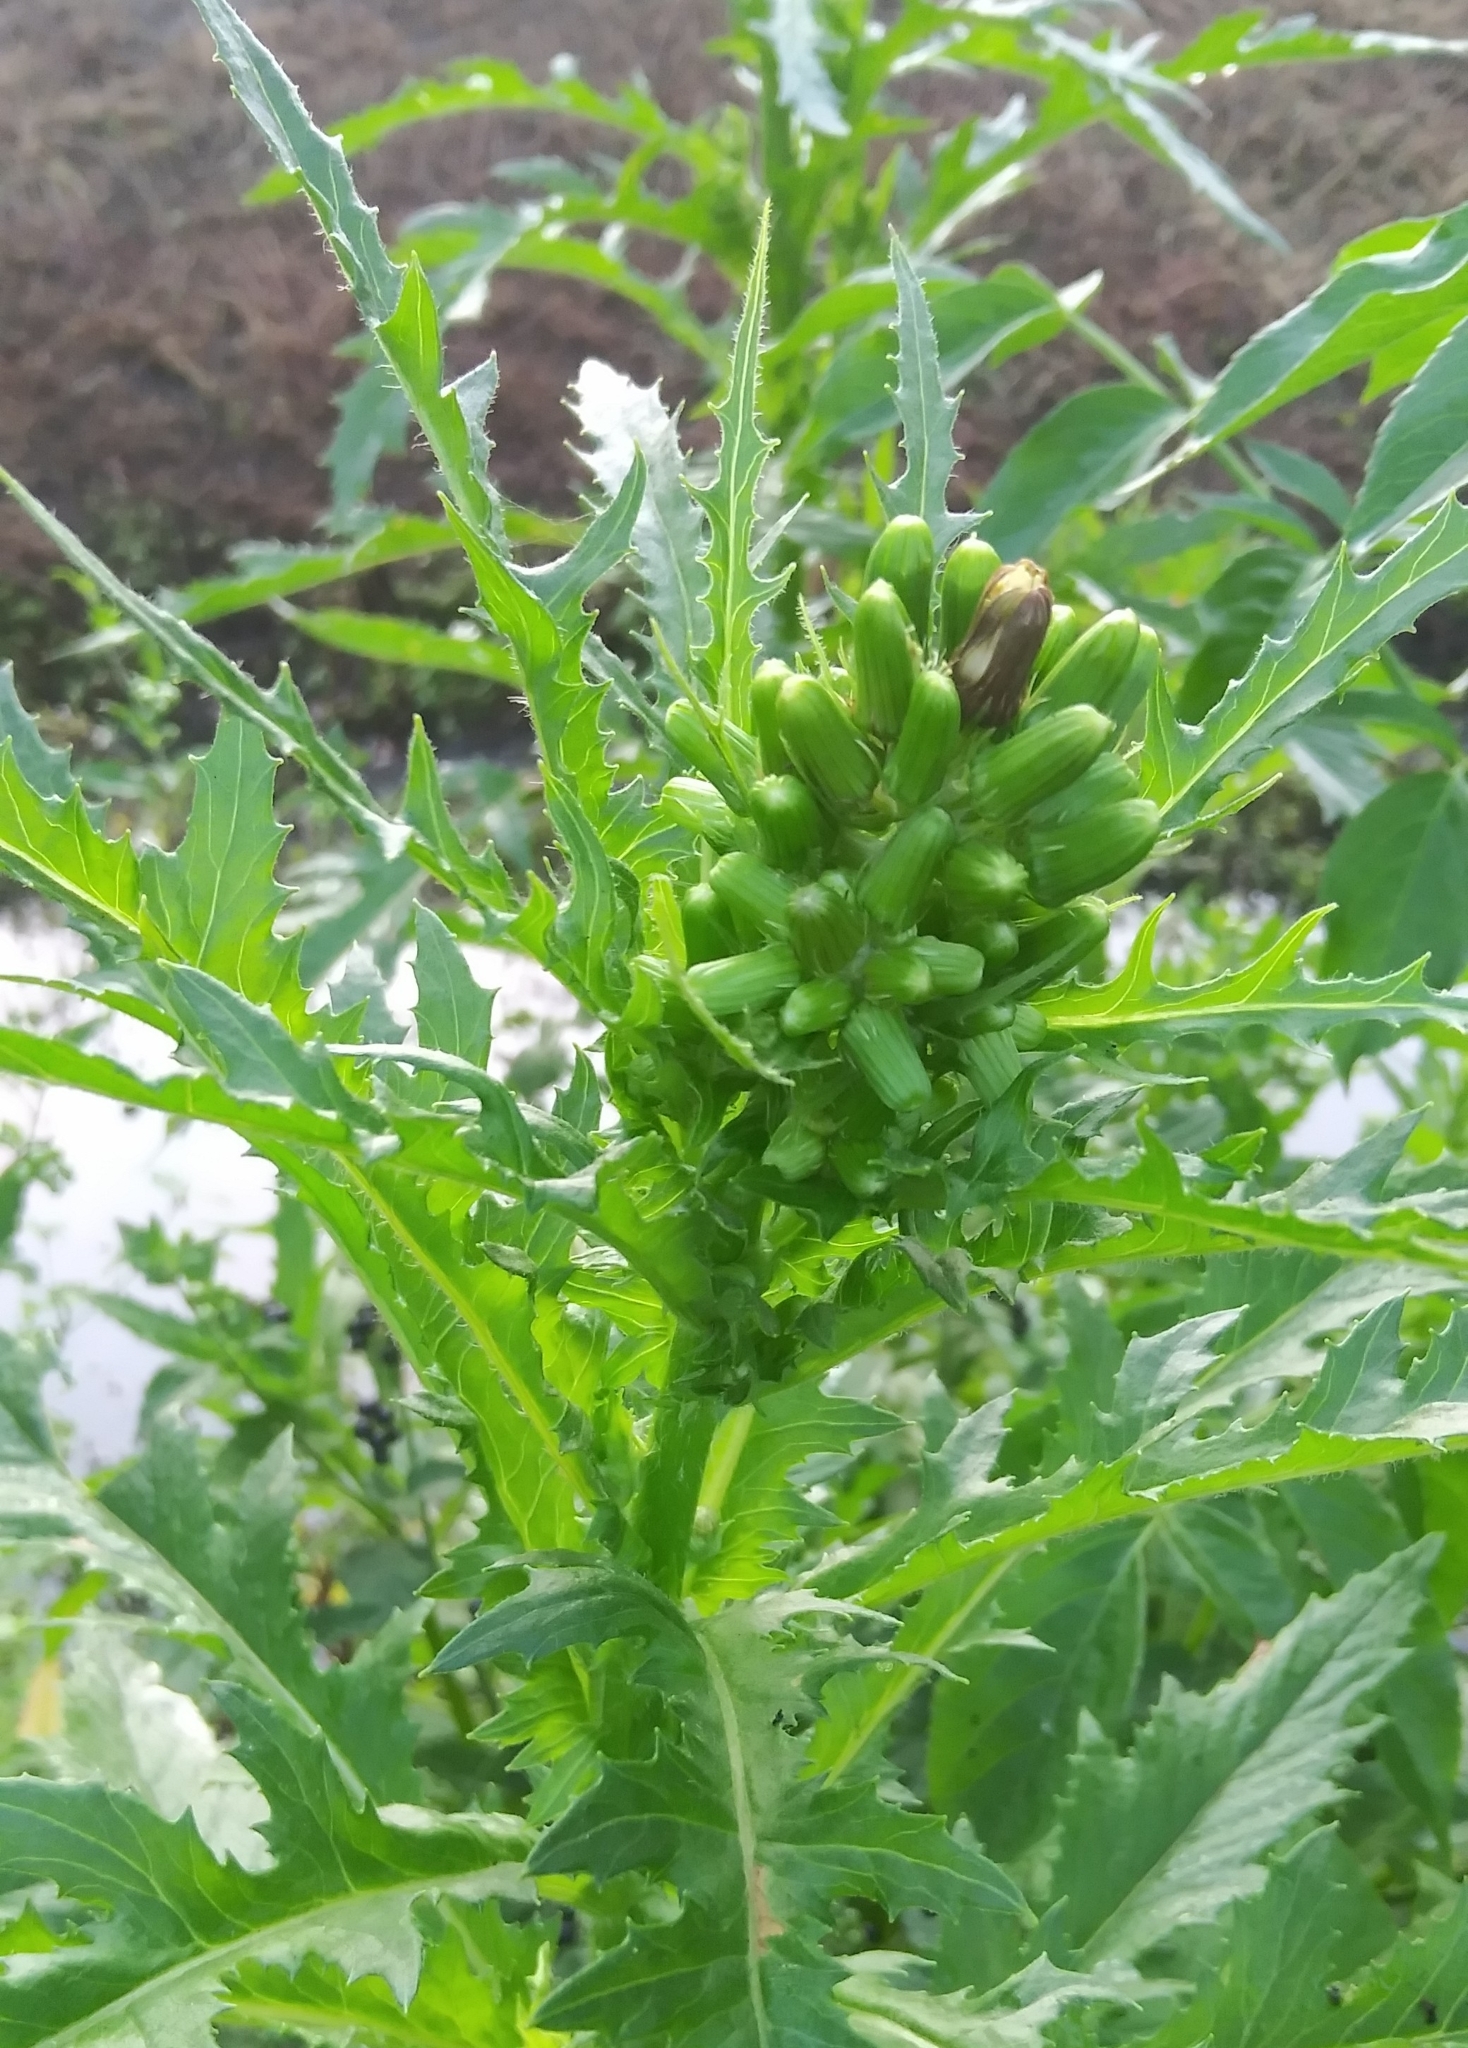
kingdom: Plantae
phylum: Tracheophyta
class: Magnoliopsida
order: Asterales
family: Asteraceae
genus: Erechtites
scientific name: Erechtites hieraciifolius
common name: American burnweed
